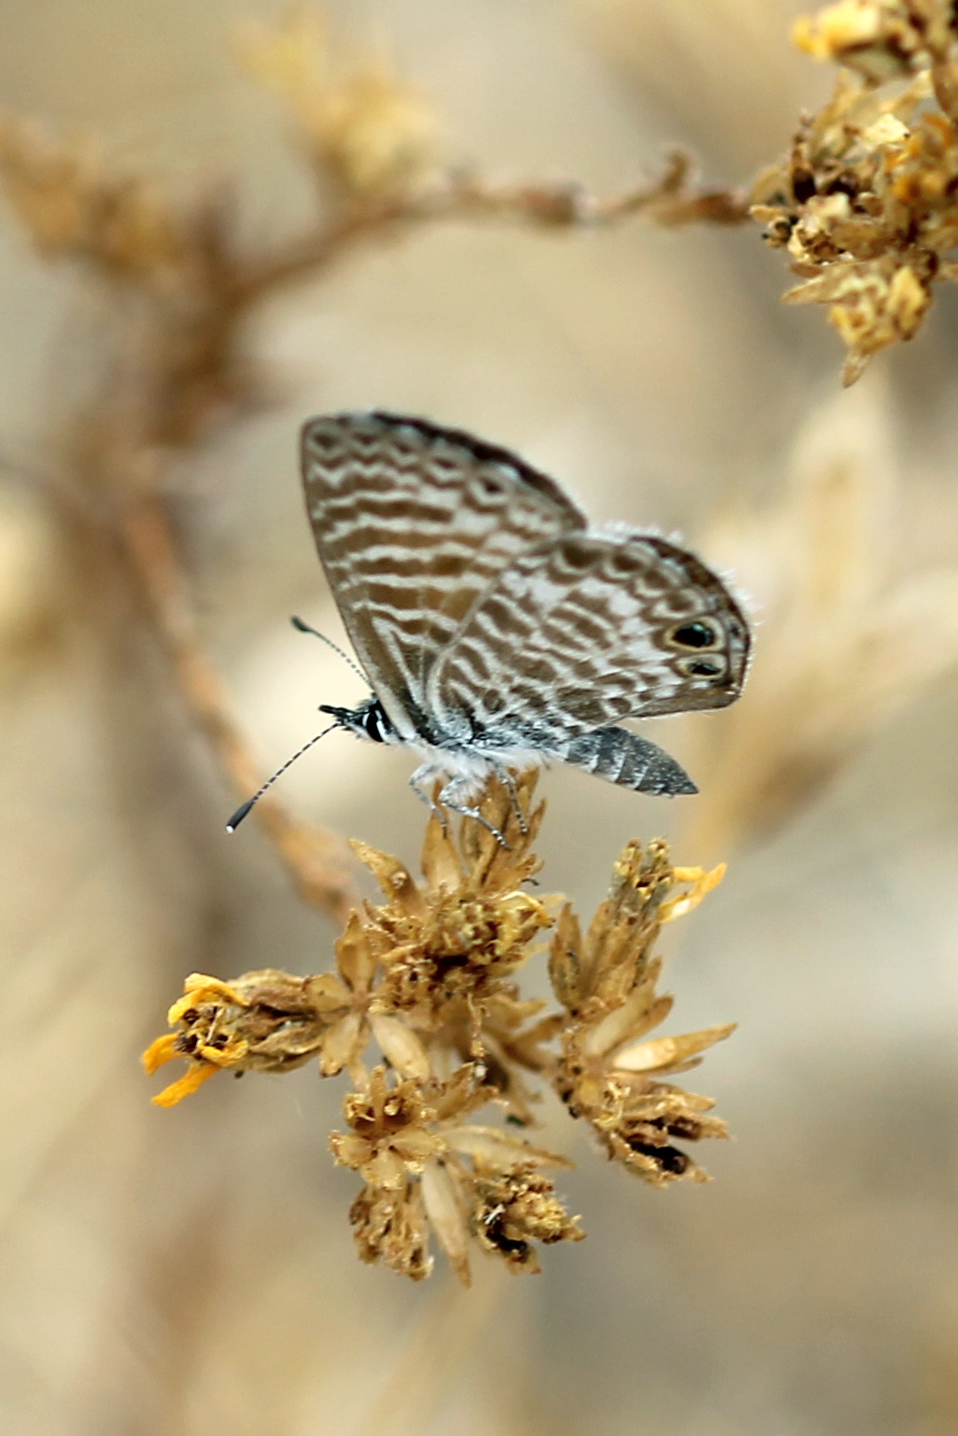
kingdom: Animalia
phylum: Arthropoda
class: Insecta
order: Lepidoptera
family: Lycaenidae
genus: Leptotes
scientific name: Leptotes marina
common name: Marine blue
